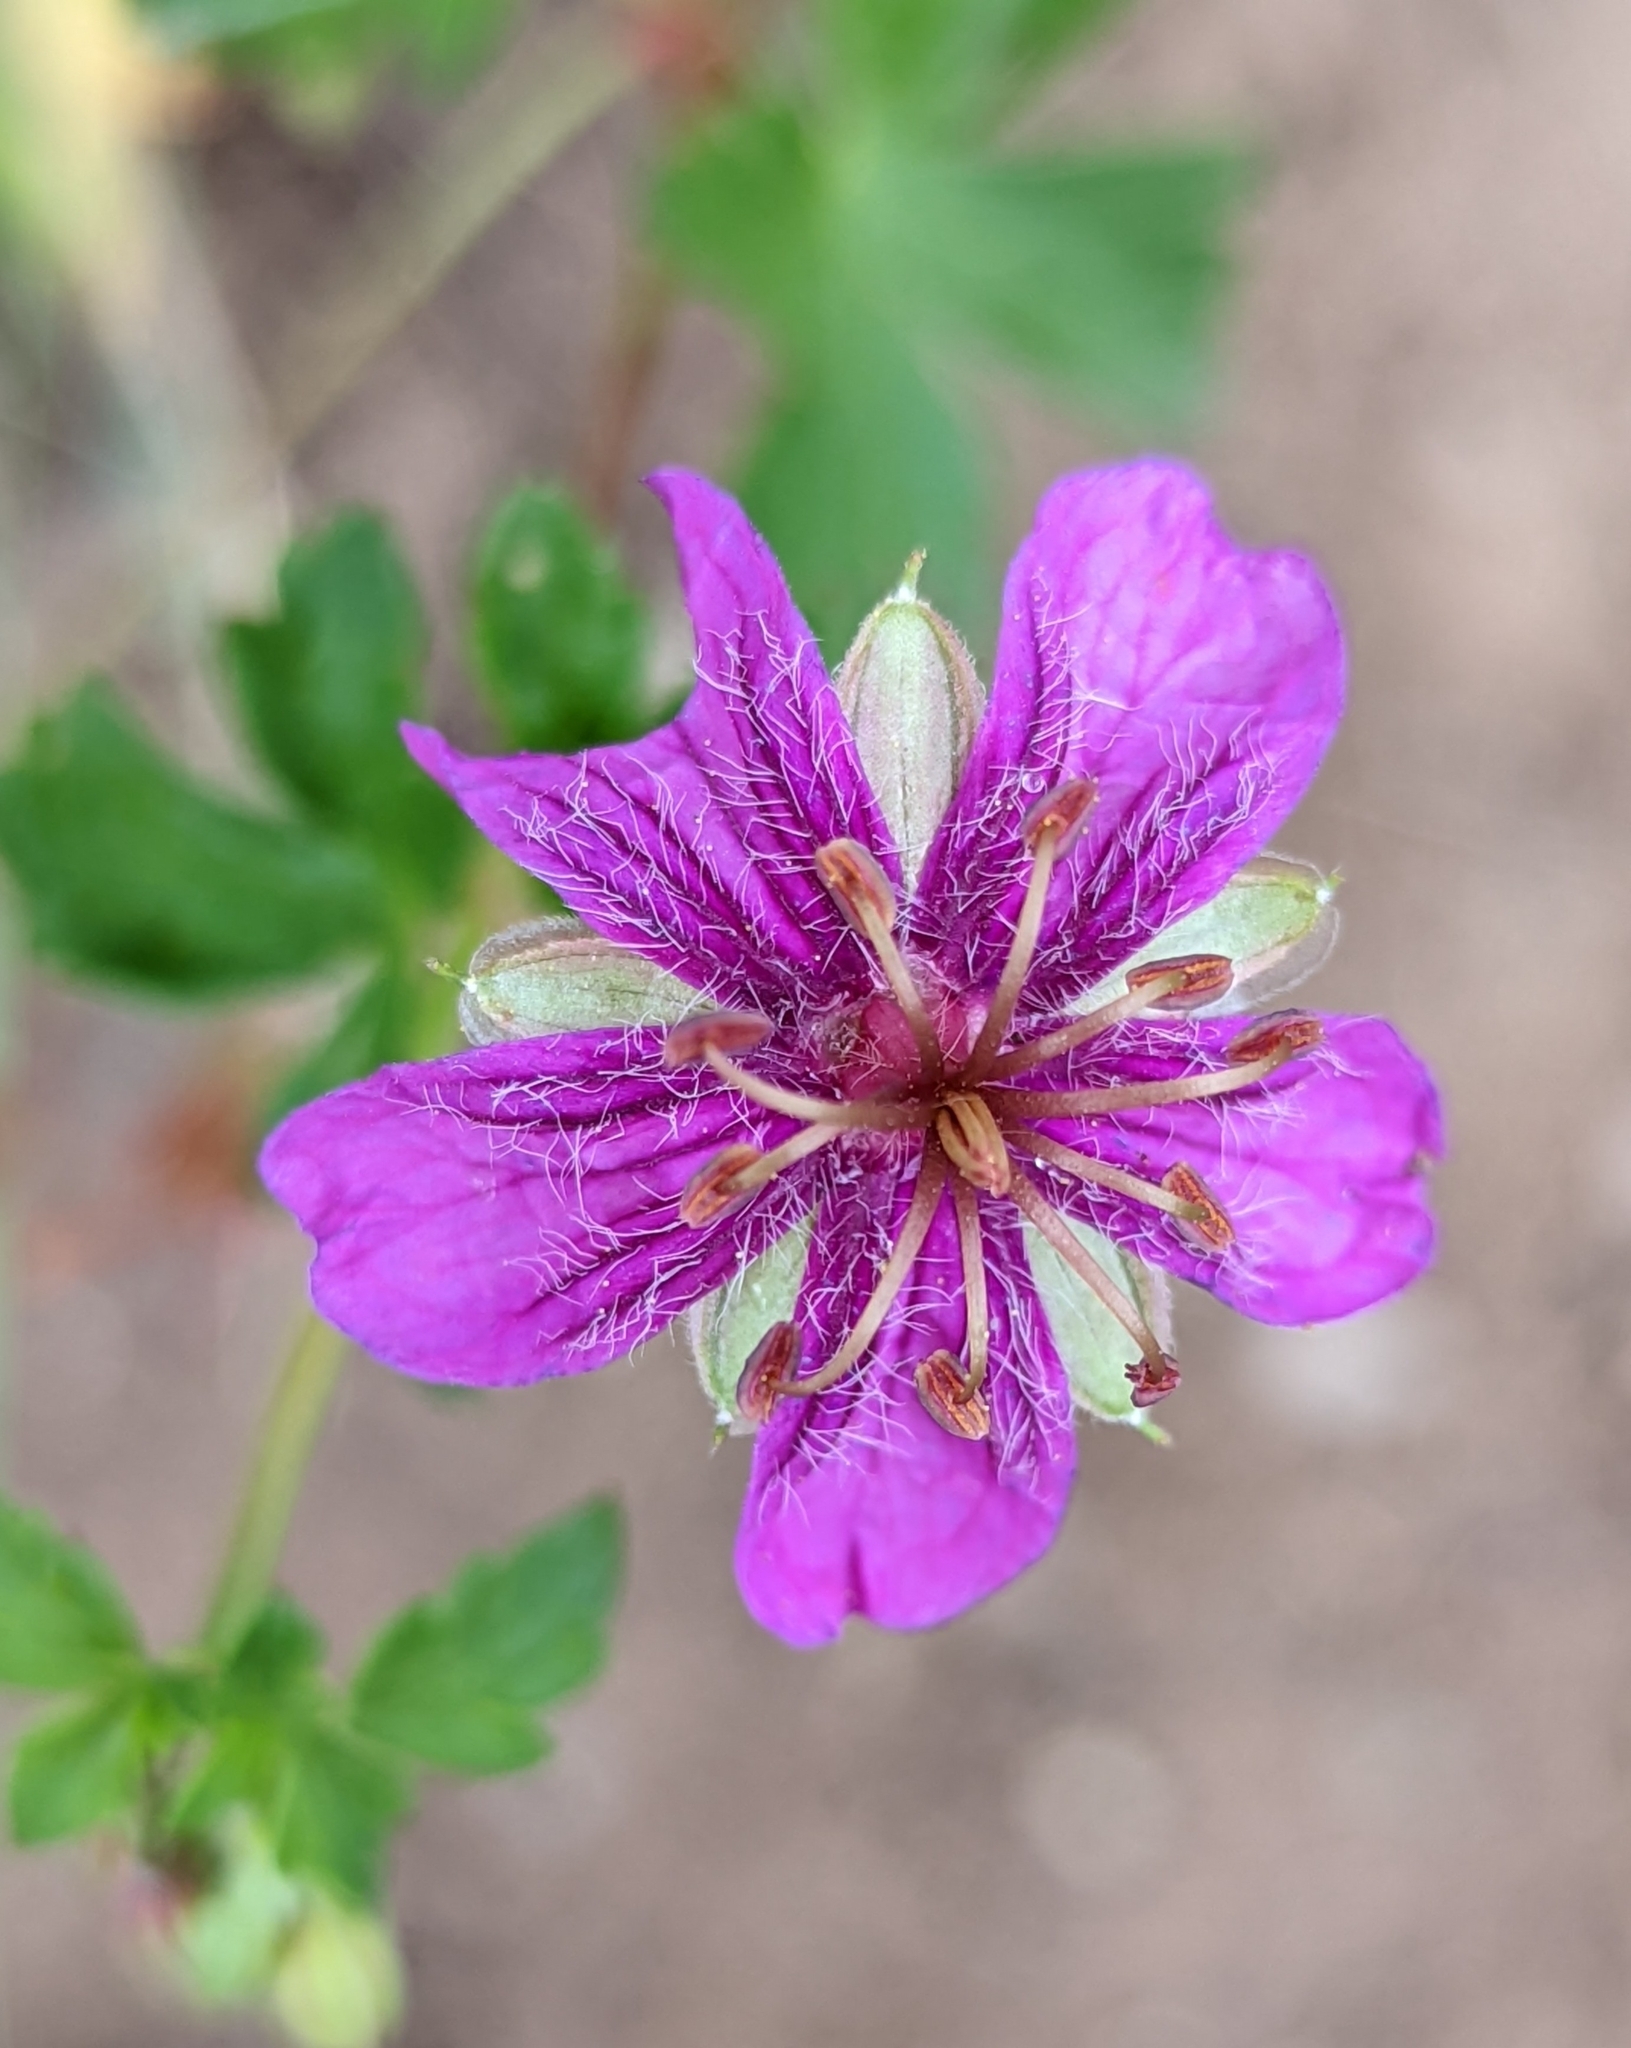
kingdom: Plantae
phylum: Tracheophyta
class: Magnoliopsida
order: Geraniales
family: Geraniaceae
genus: Geranium
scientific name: Geranium caespitosum
